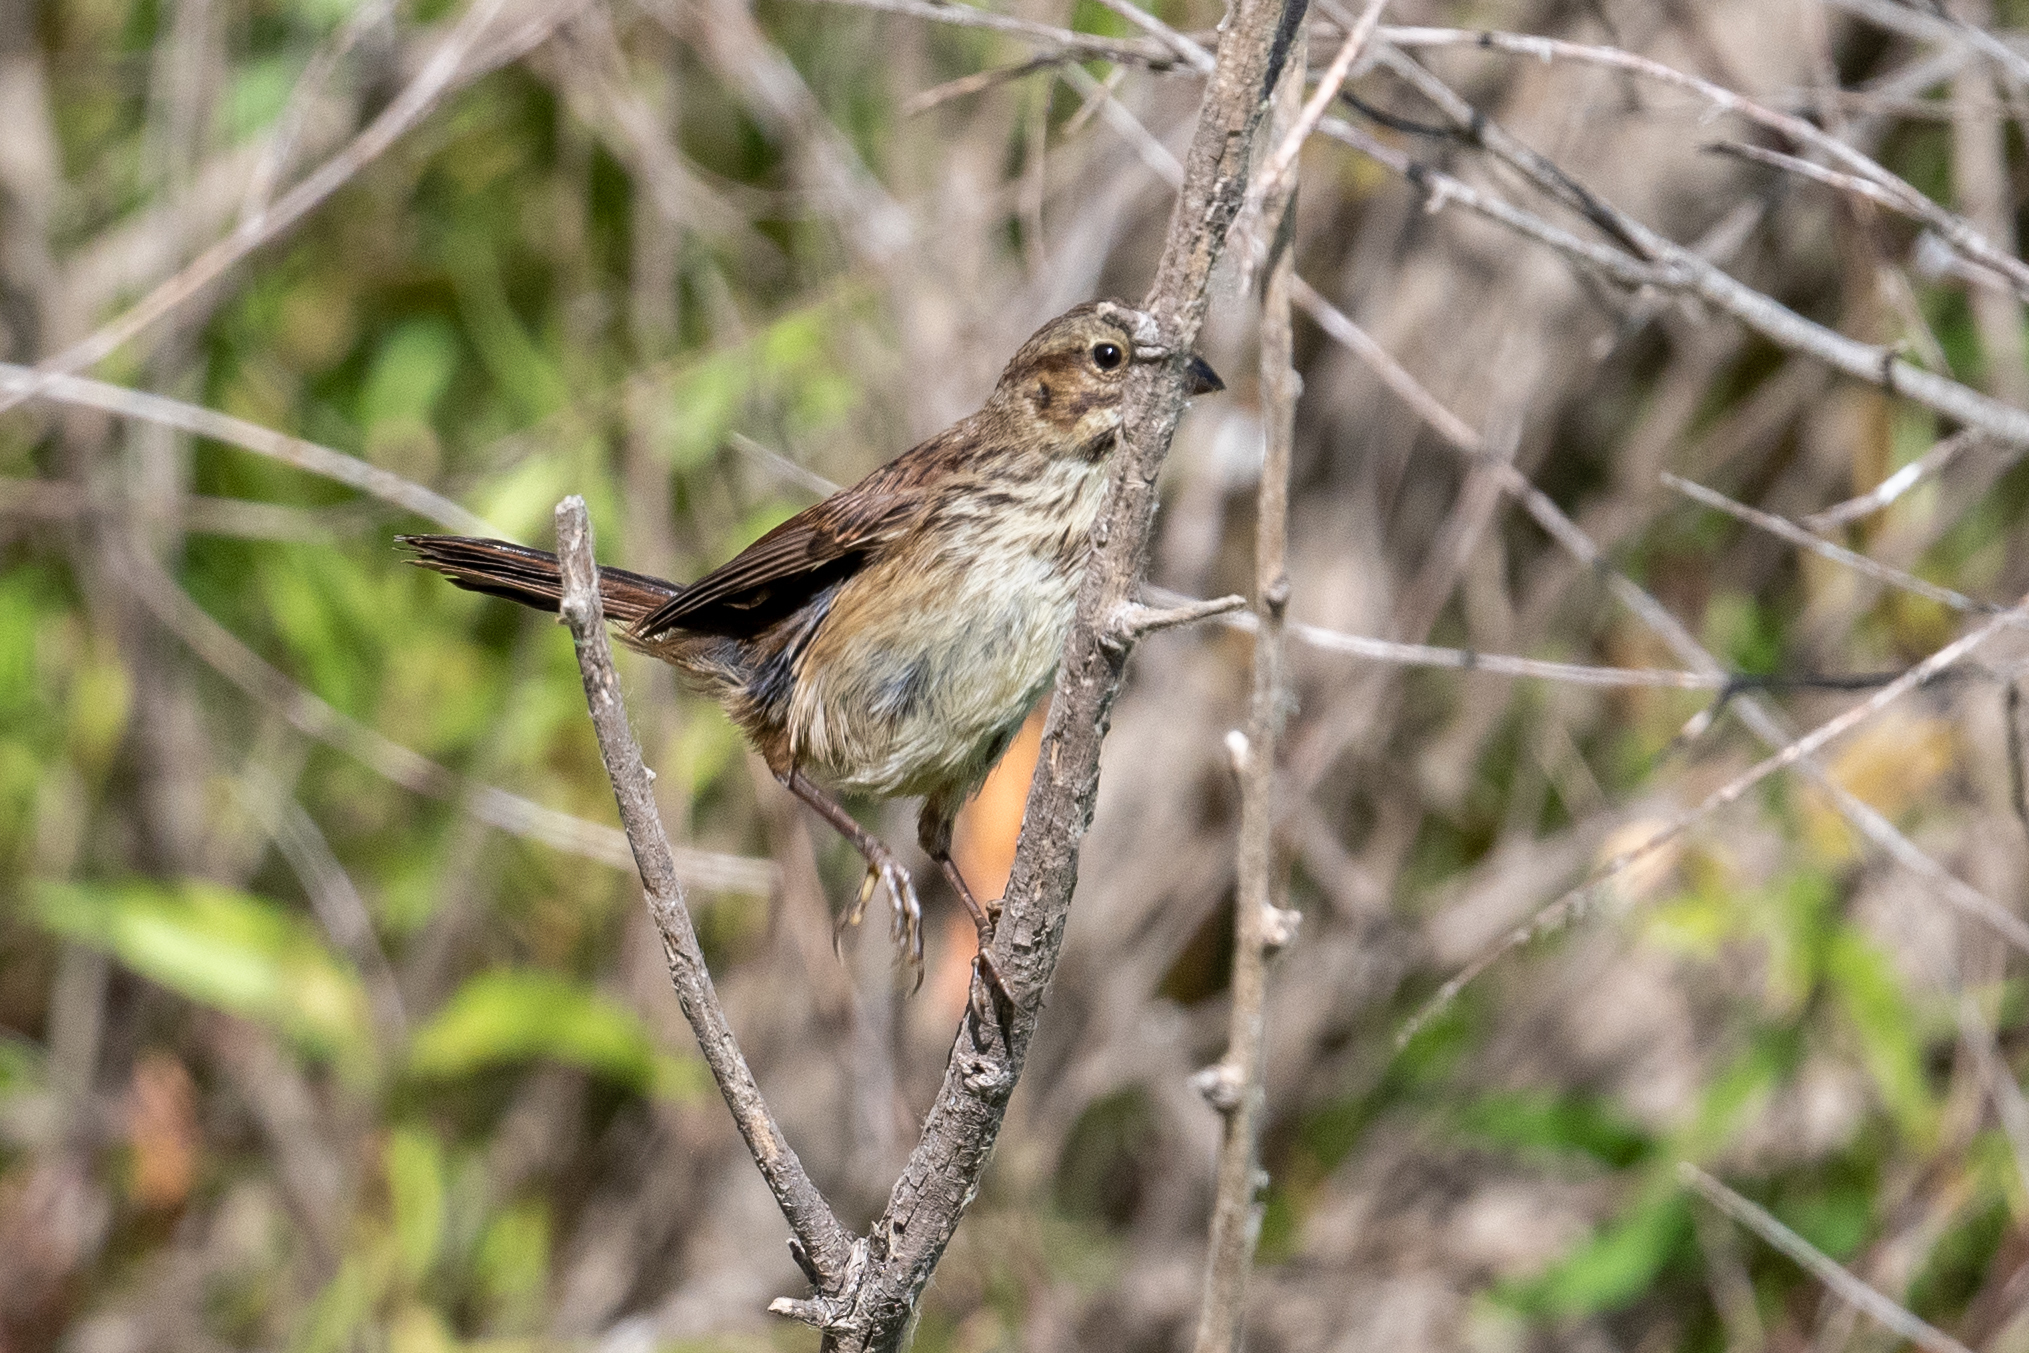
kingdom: Animalia
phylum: Chordata
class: Aves
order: Passeriformes
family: Passerellidae
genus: Melospiza
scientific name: Melospiza melodia
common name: Song sparrow
